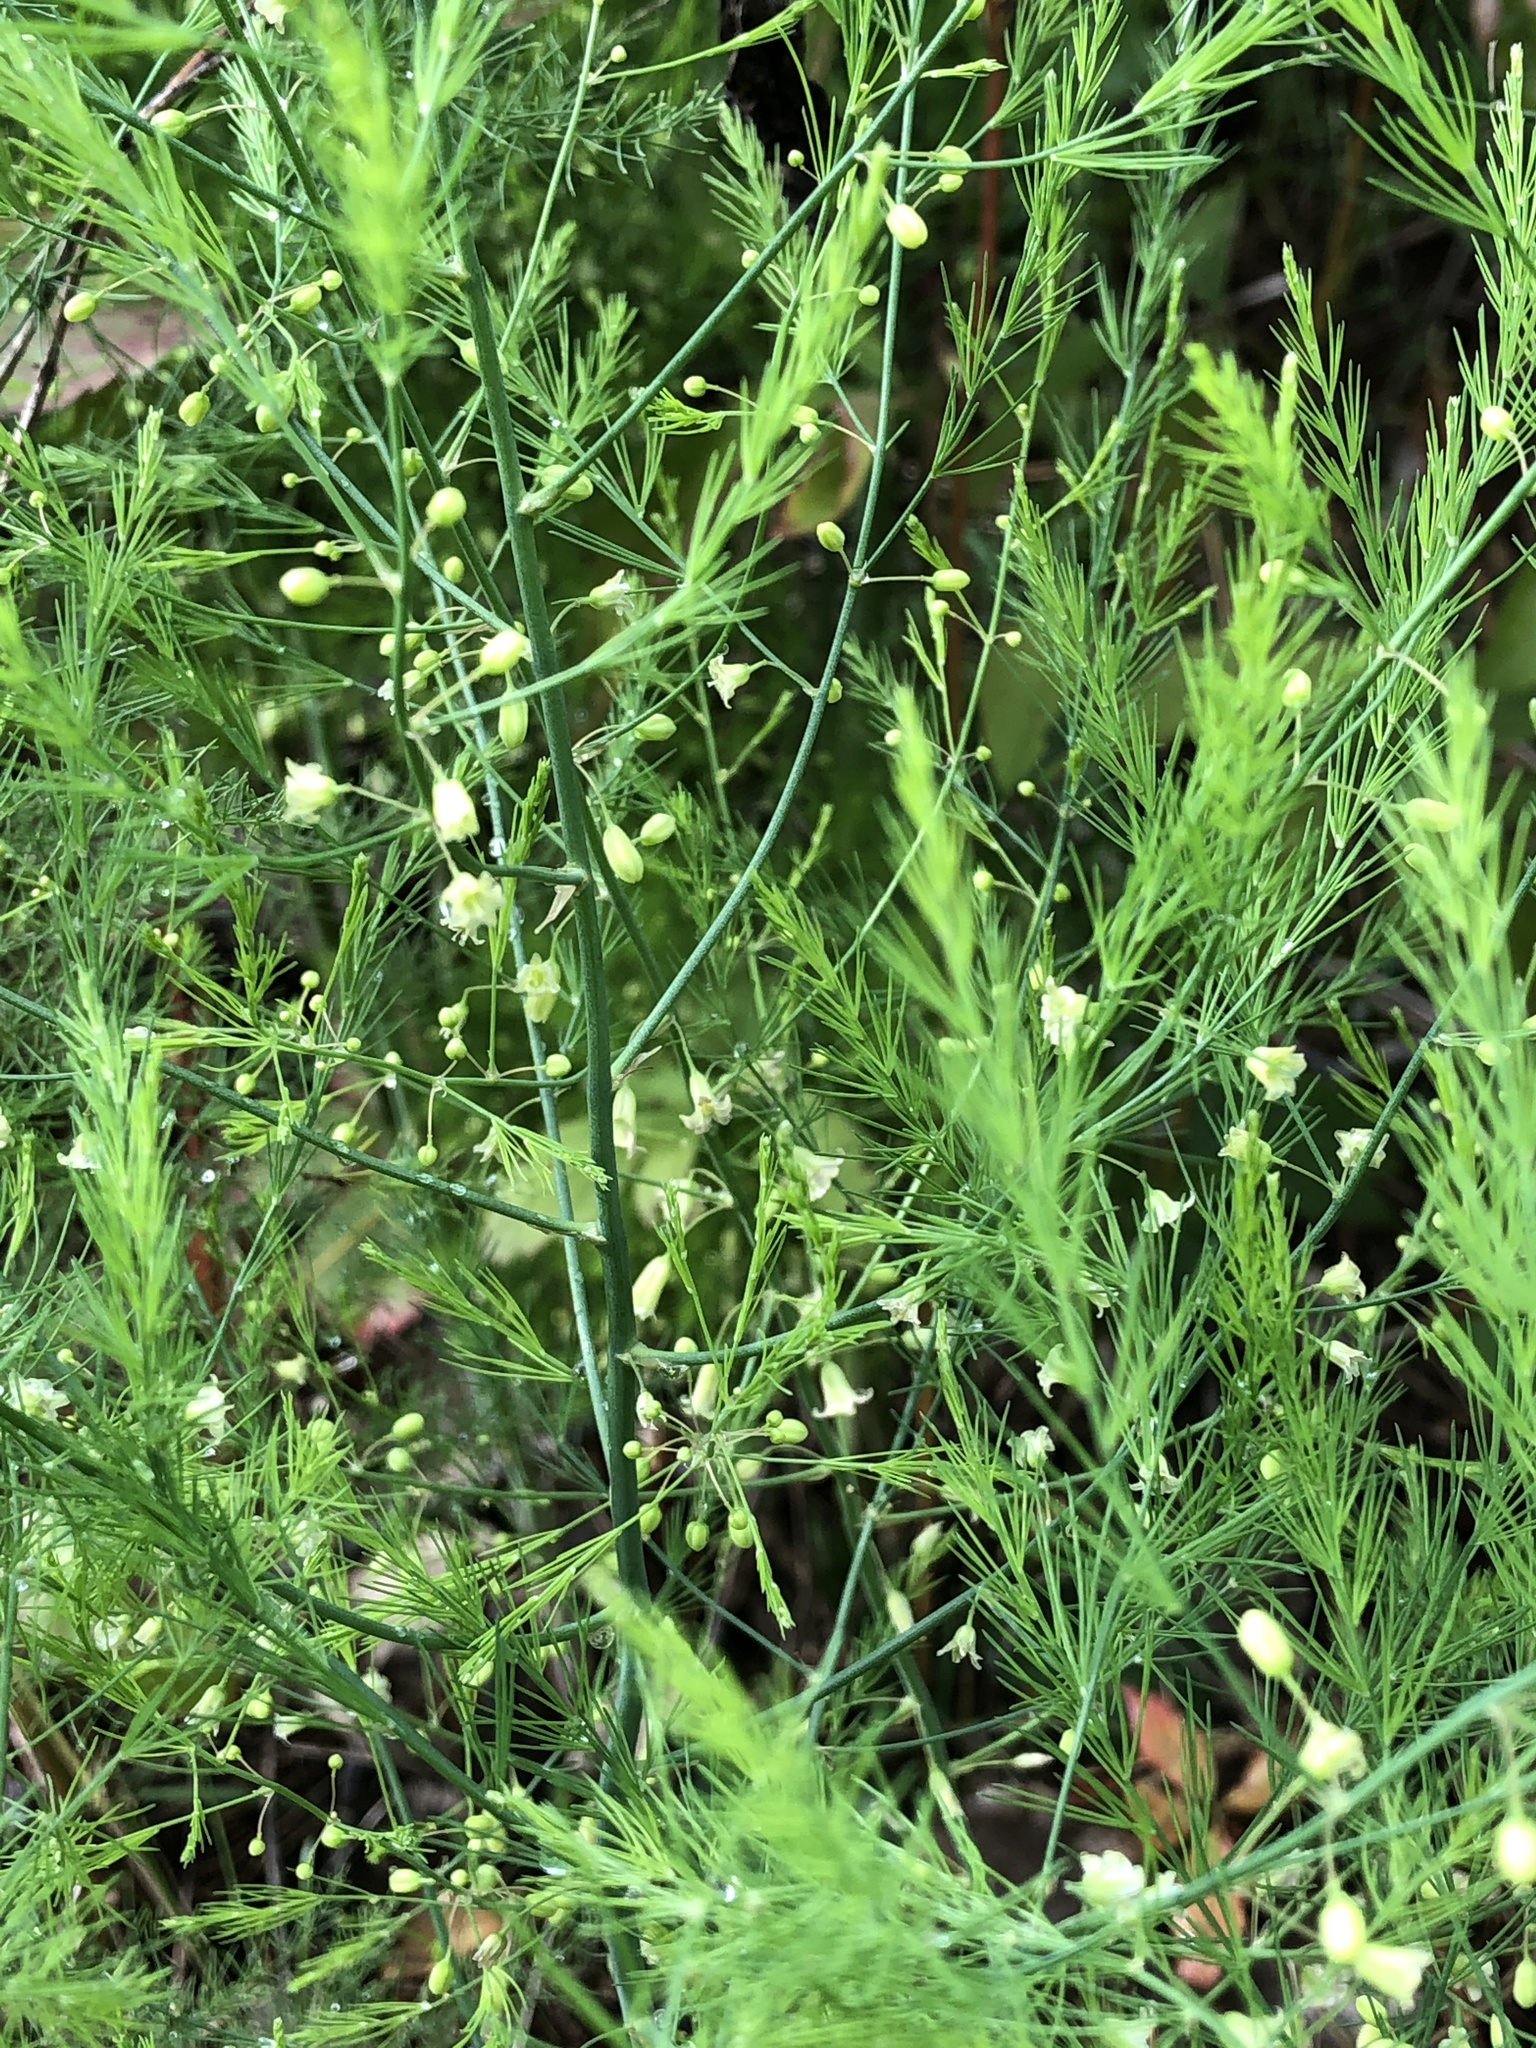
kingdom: Plantae
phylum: Tracheophyta
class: Liliopsida
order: Asparagales
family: Asparagaceae
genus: Asparagus
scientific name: Asparagus officinalis
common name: Garden asparagus
